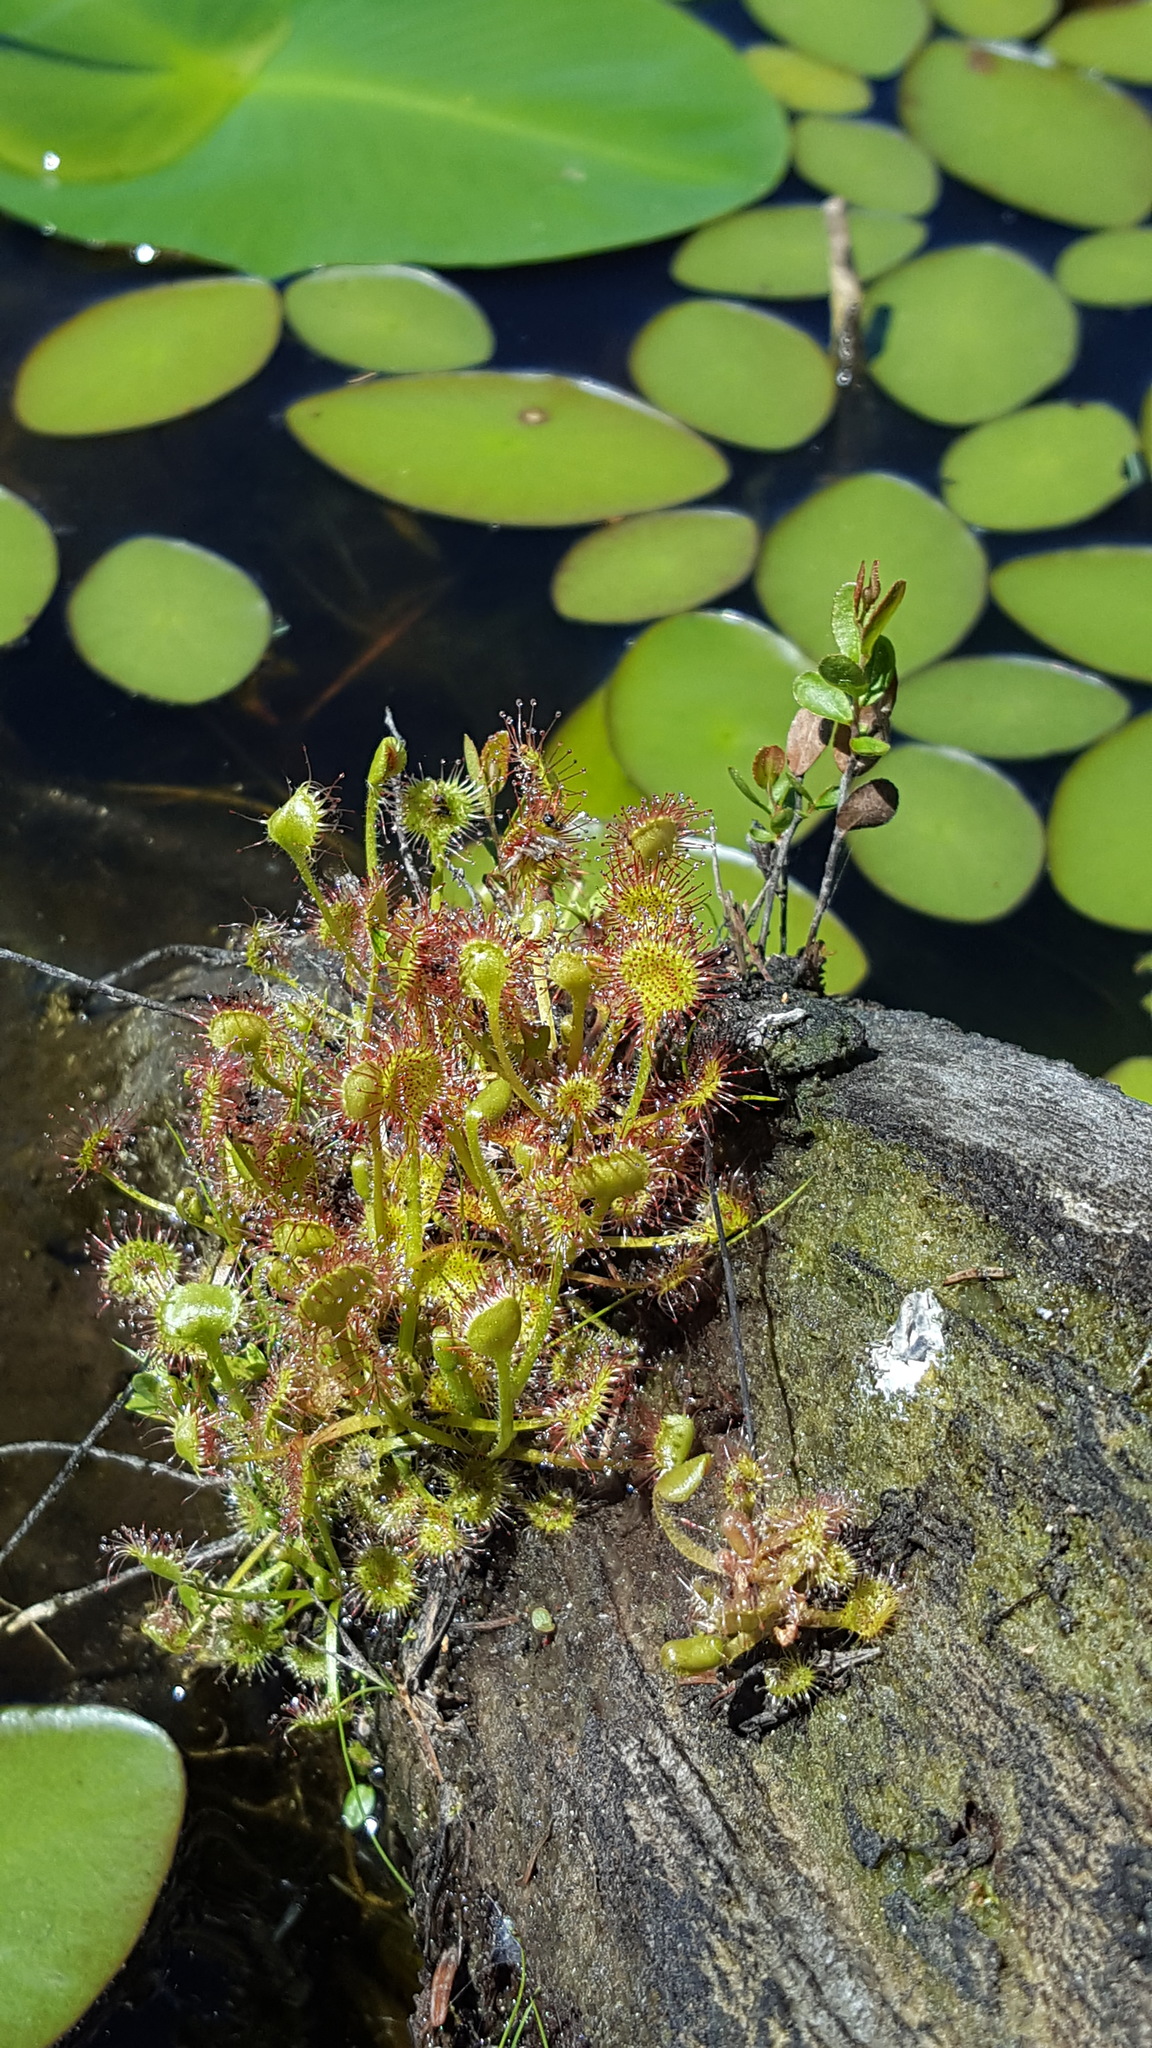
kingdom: Plantae
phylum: Tracheophyta
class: Magnoliopsida
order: Caryophyllales
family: Droseraceae
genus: Drosera
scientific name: Drosera rotundifolia
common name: Round-leaved sundew
